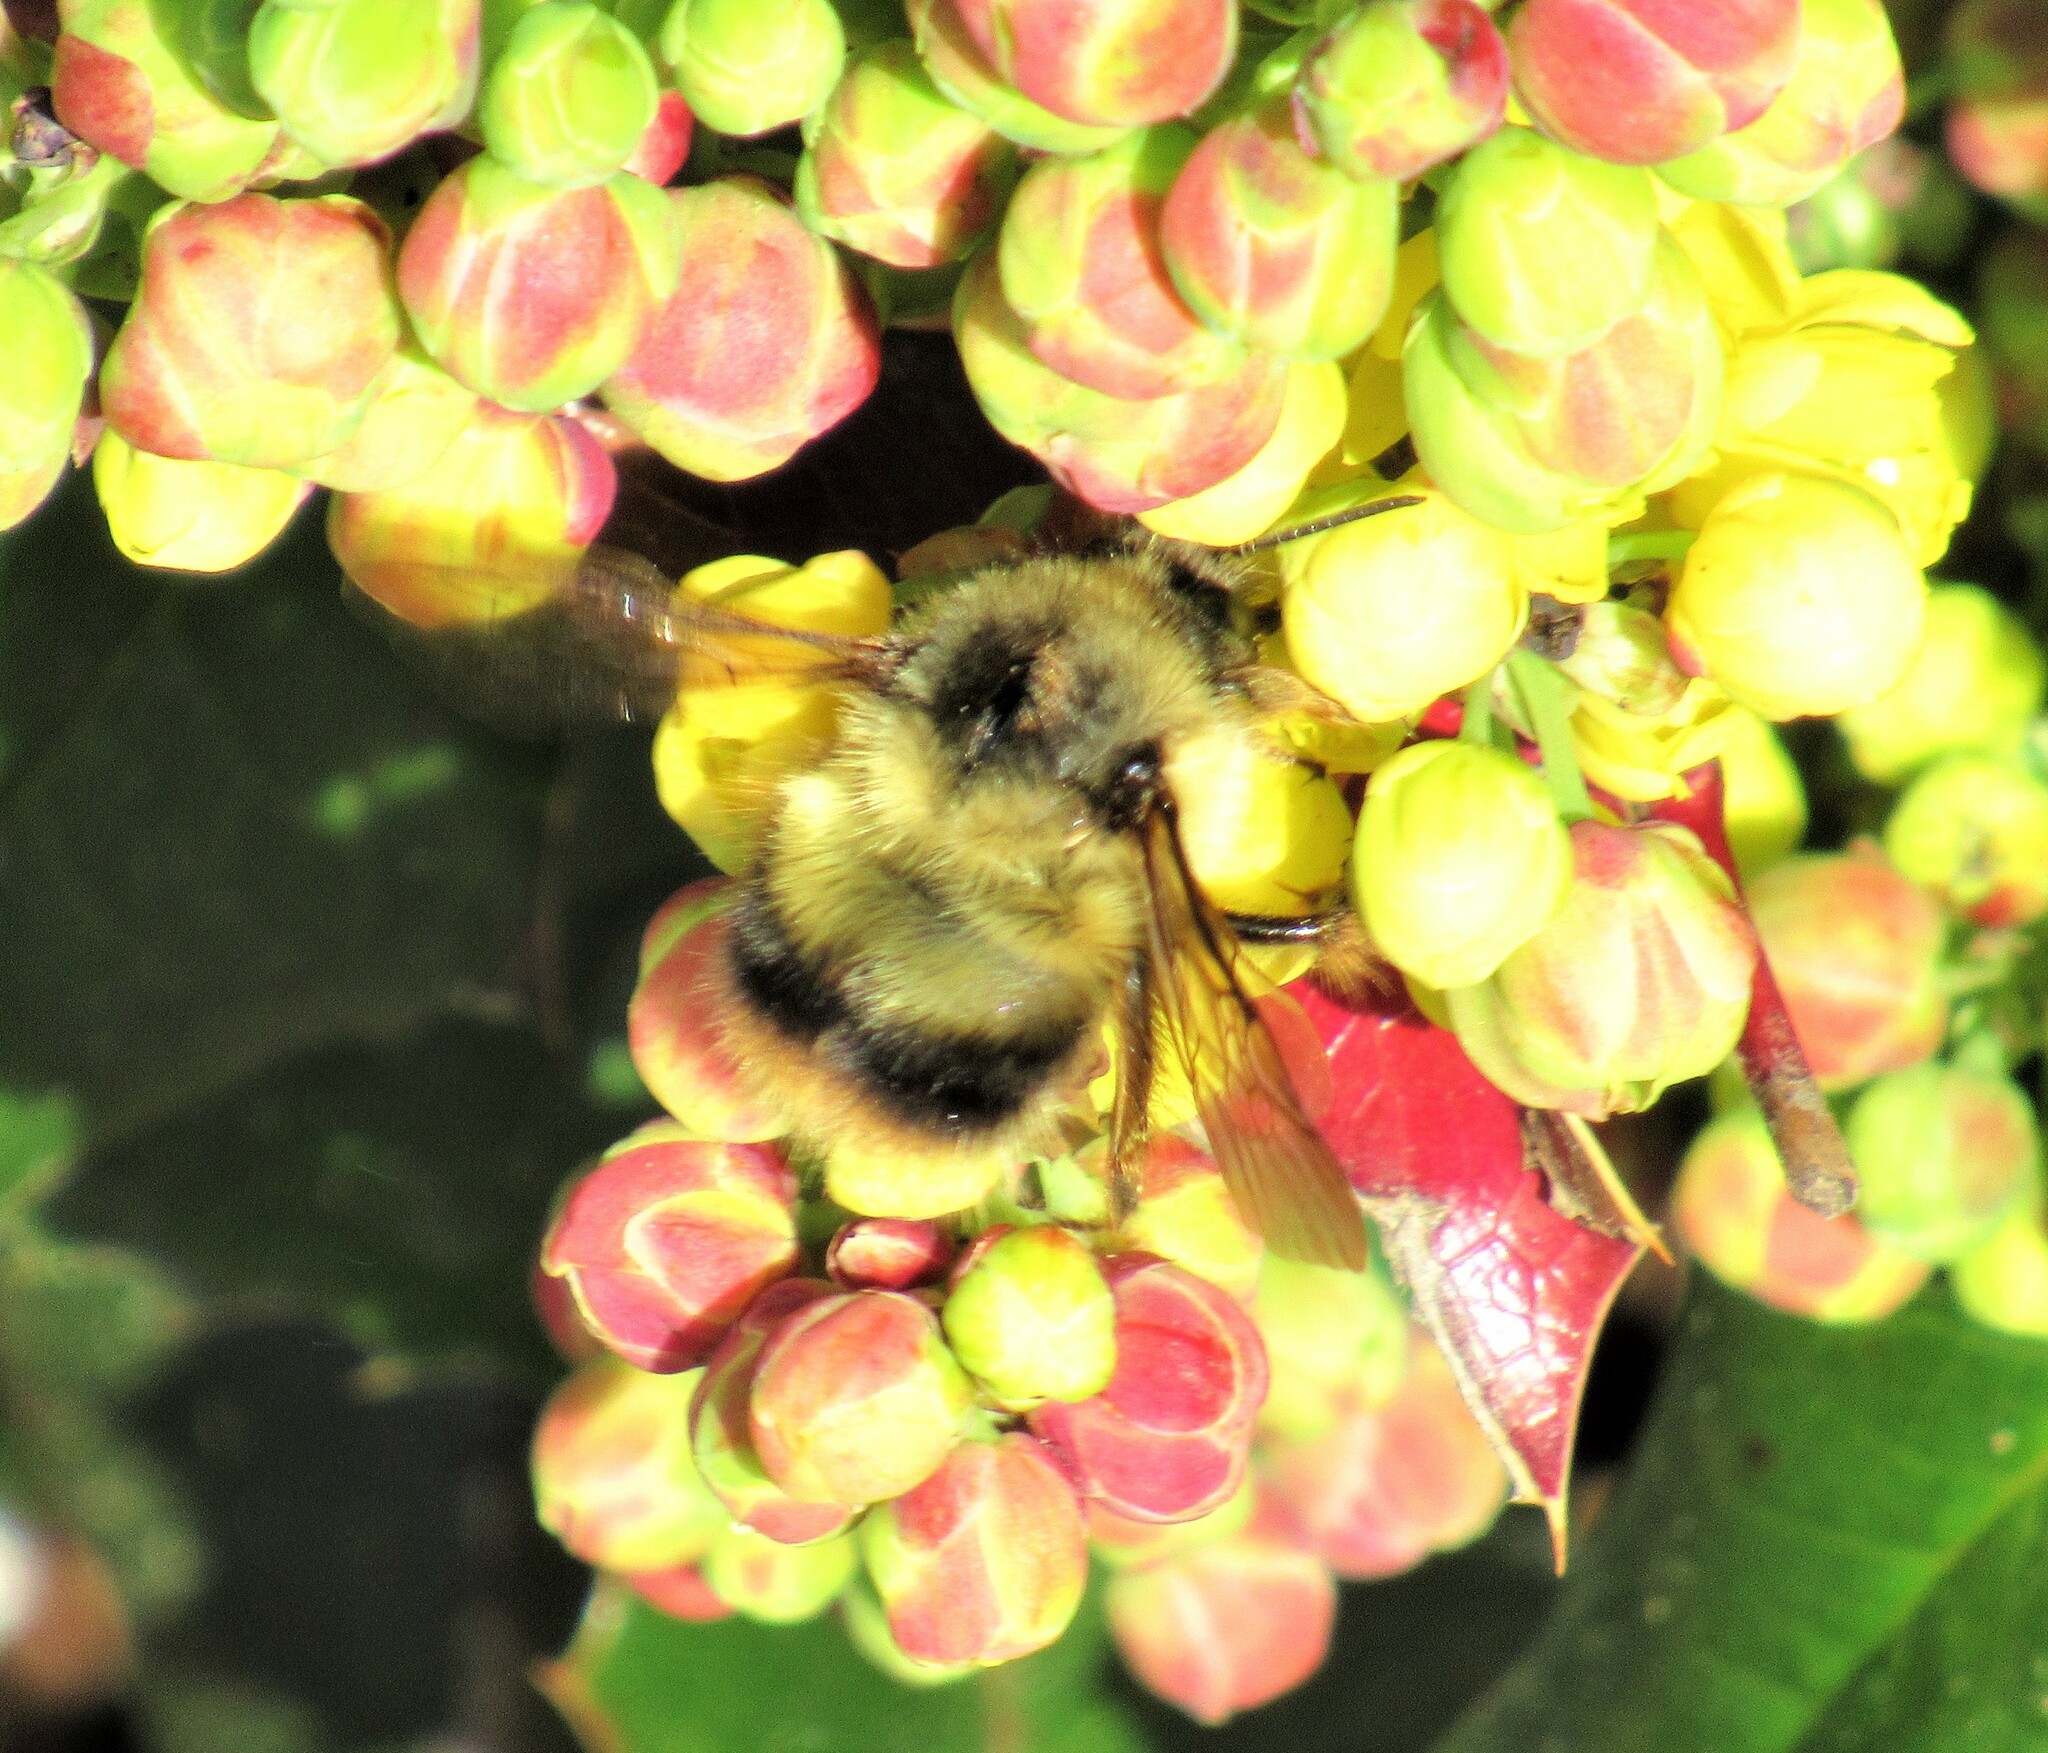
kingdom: Animalia
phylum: Arthropoda
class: Insecta
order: Hymenoptera
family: Apidae
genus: Bombus
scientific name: Bombus mixtus
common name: Fuzzy-horned bumble bee
